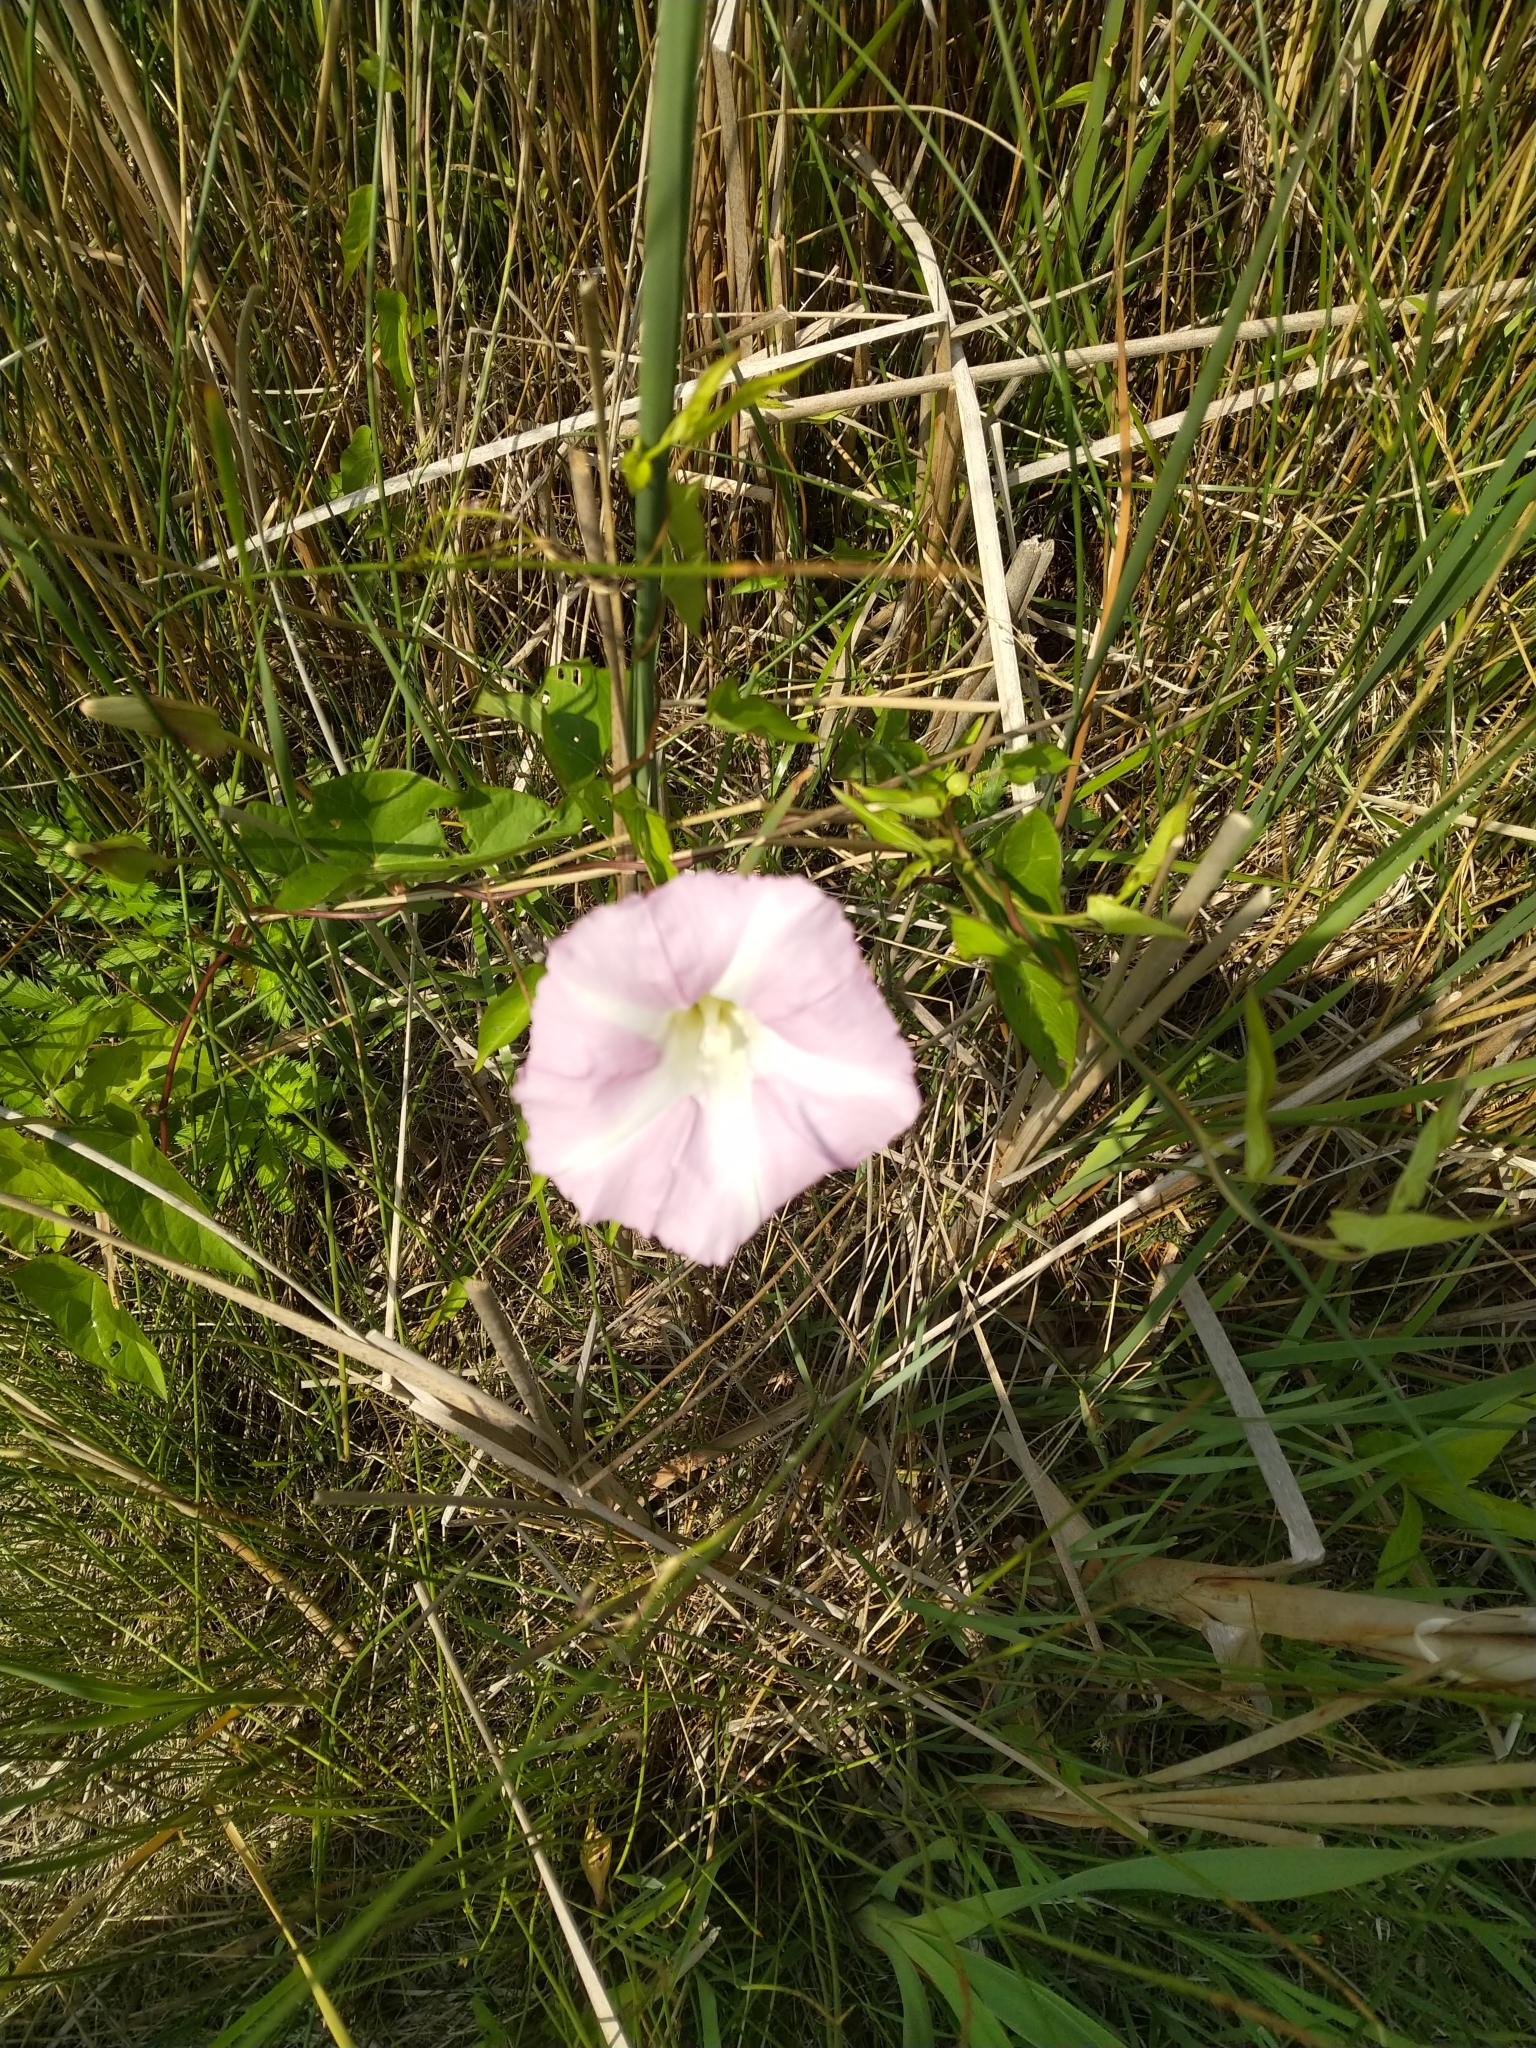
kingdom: Plantae
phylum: Tracheophyta
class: Magnoliopsida
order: Solanales
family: Convolvulaceae
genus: Calystegia
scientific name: Calystegia sepium
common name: Hedge bindweed
